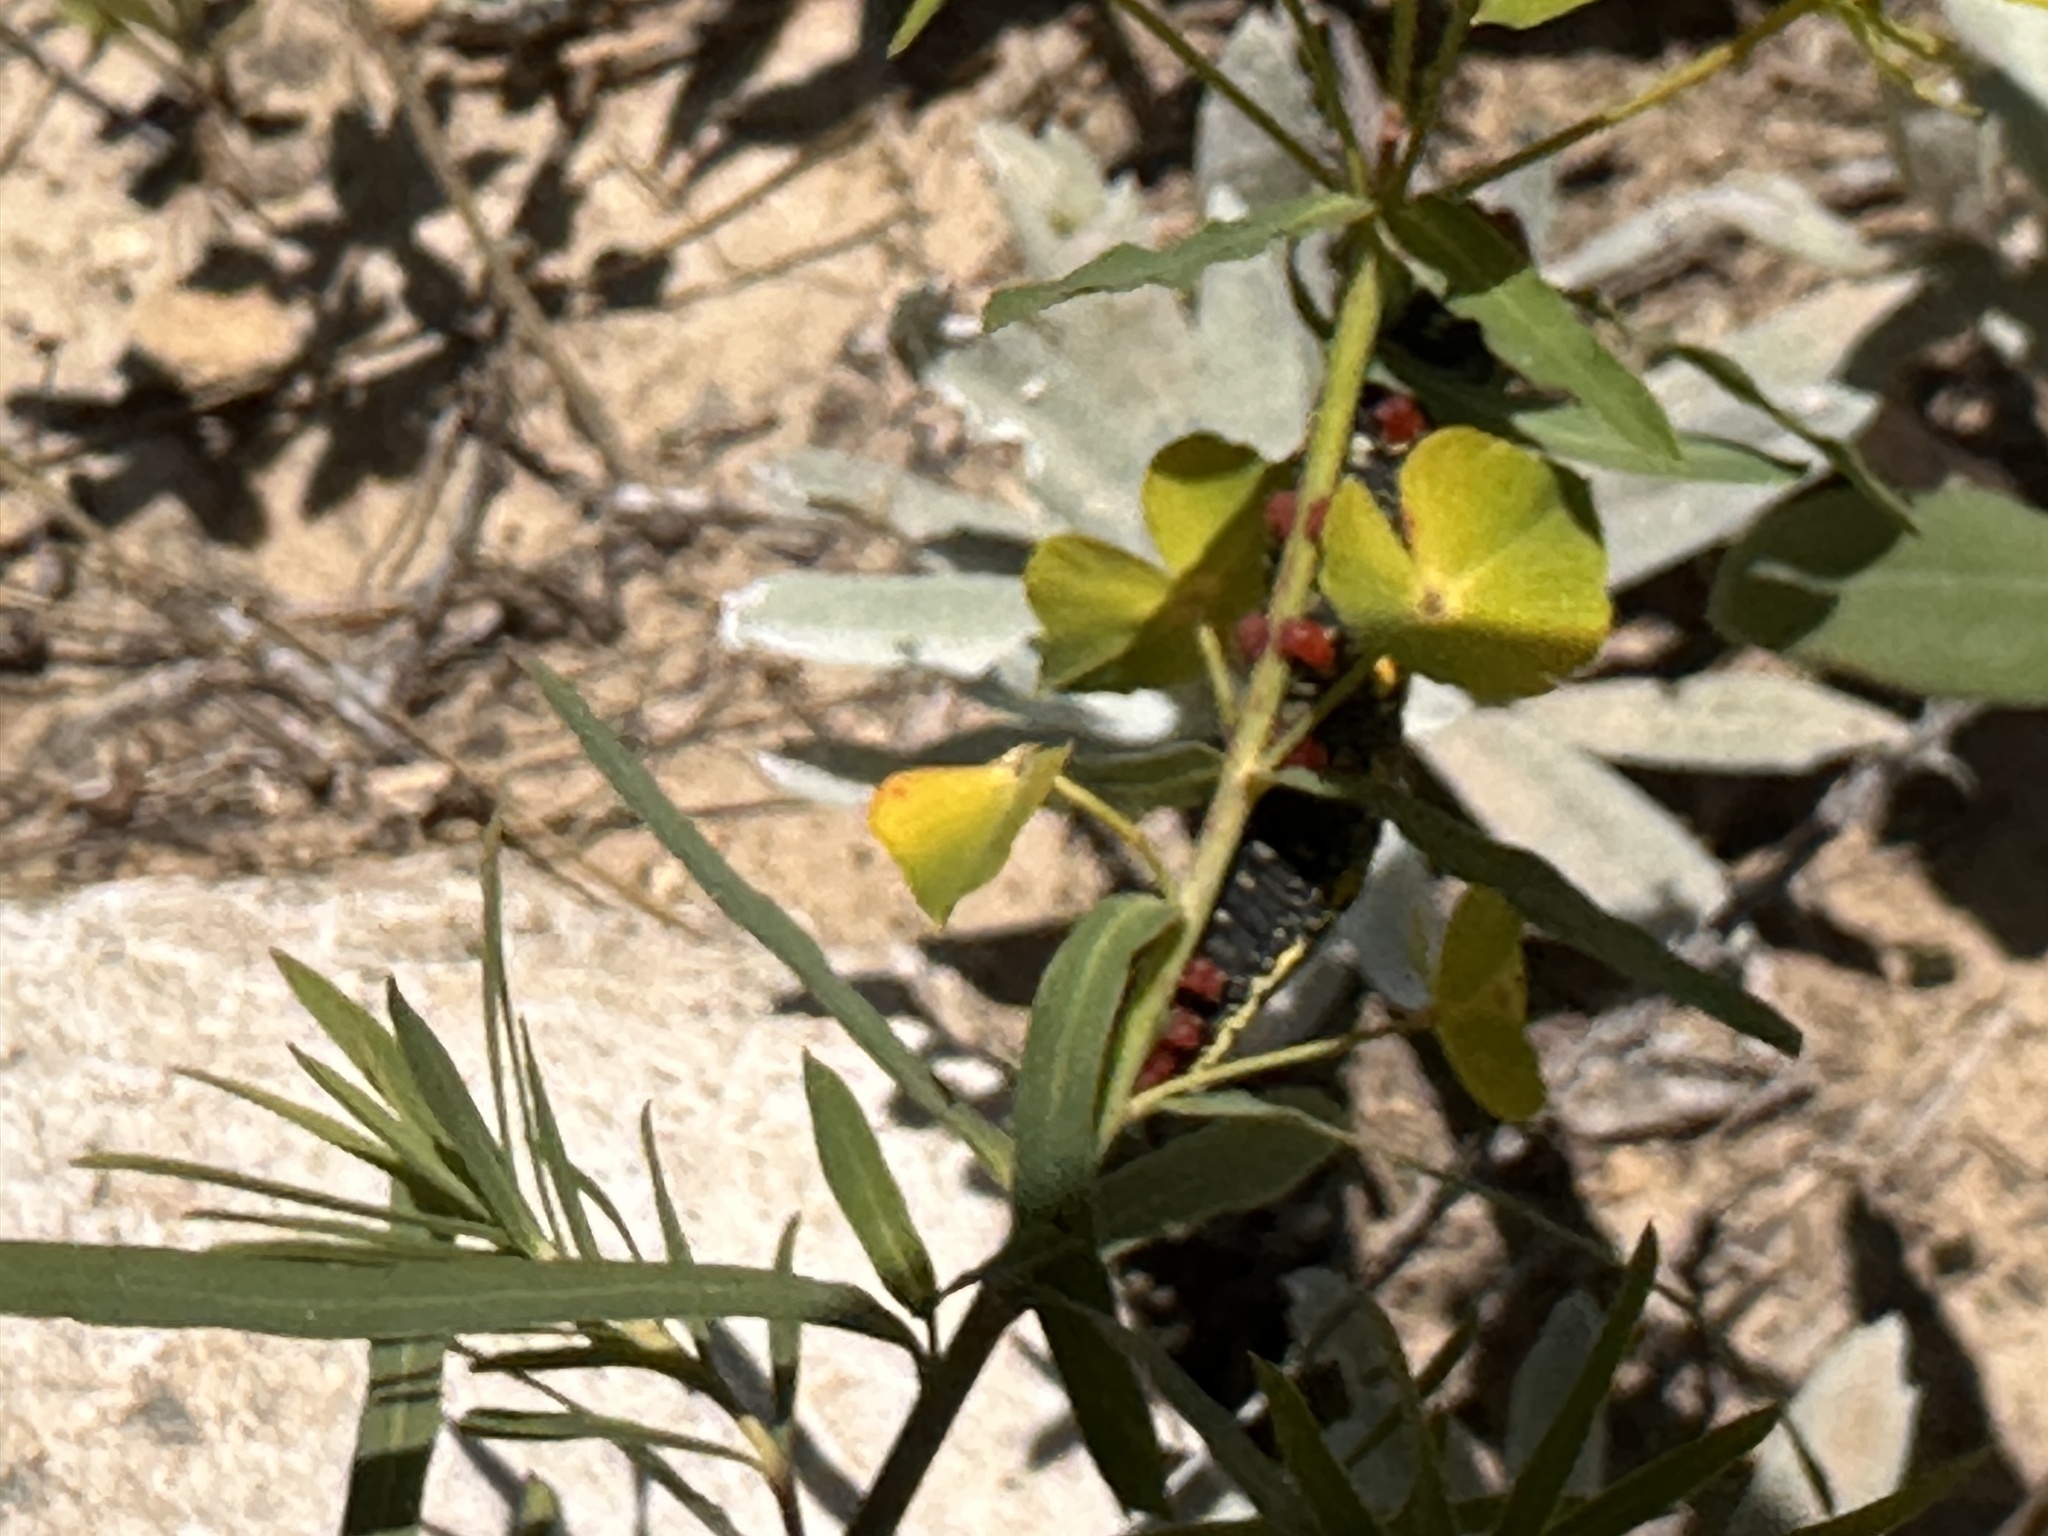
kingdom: Animalia
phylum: Arthropoda
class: Insecta
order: Lepidoptera
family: Sphingidae
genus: Hyles
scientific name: Hyles euphorbiae
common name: Spurge hawk-moth
